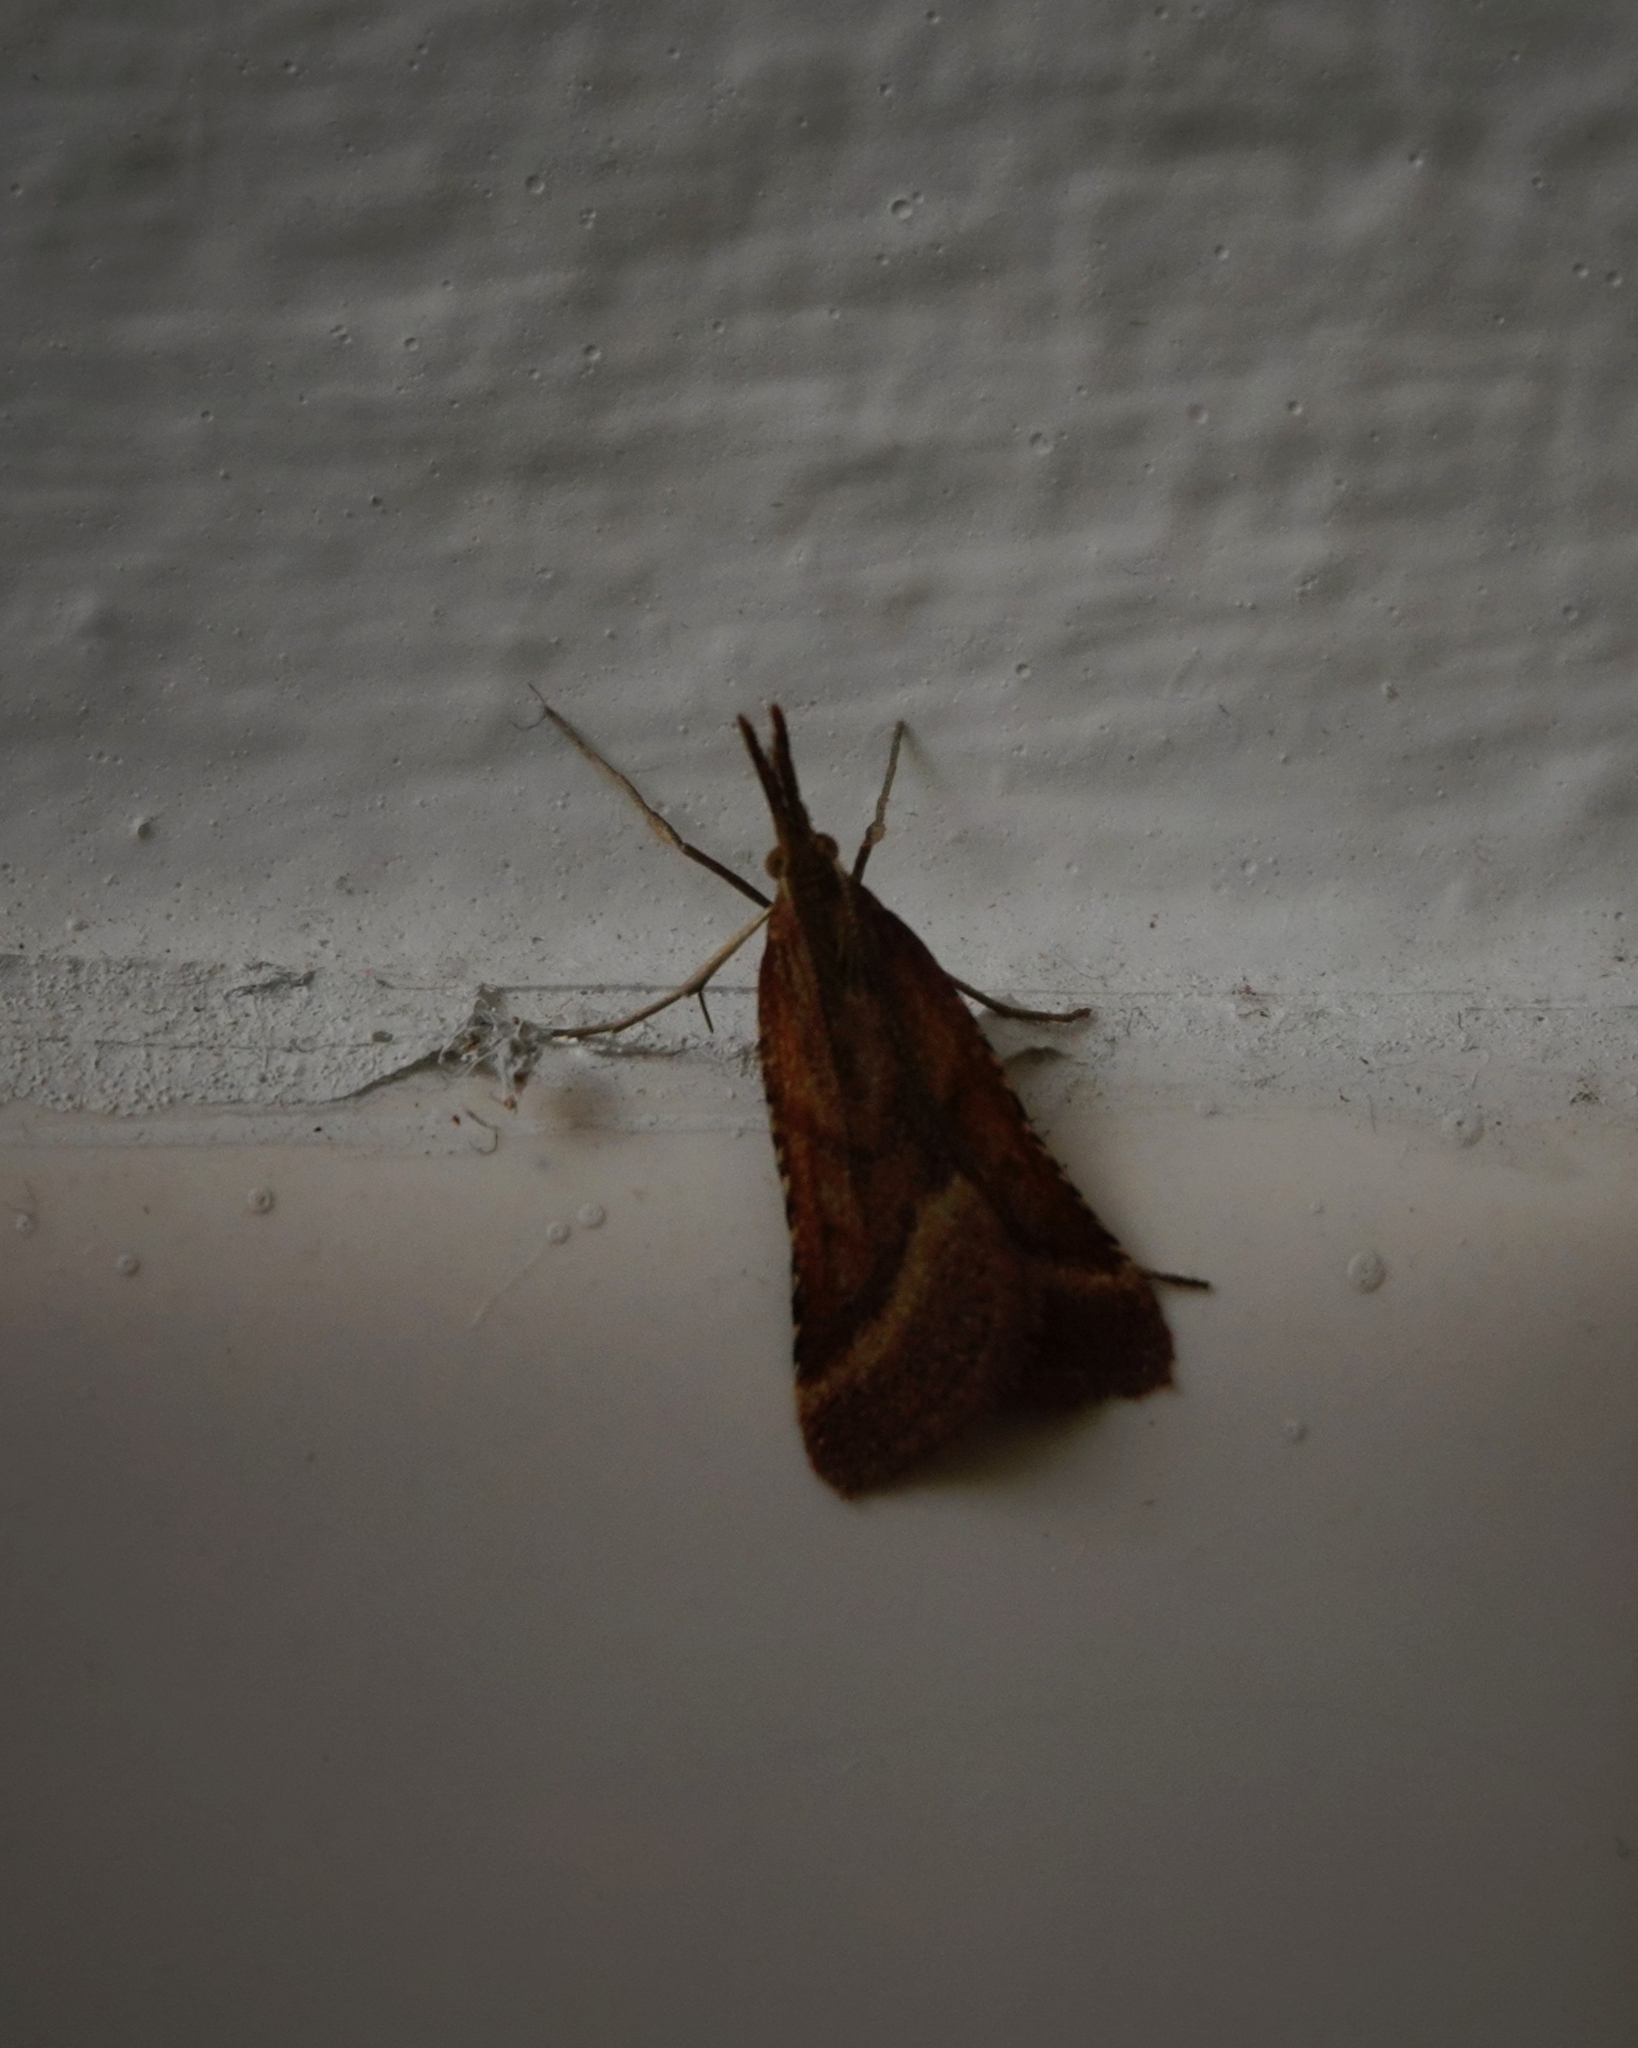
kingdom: Animalia
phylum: Arthropoda
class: Insecta
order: Lepidoptera
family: Pyralidae
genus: Synaphe
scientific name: Synaphe punctalis
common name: Long-legged tabby
